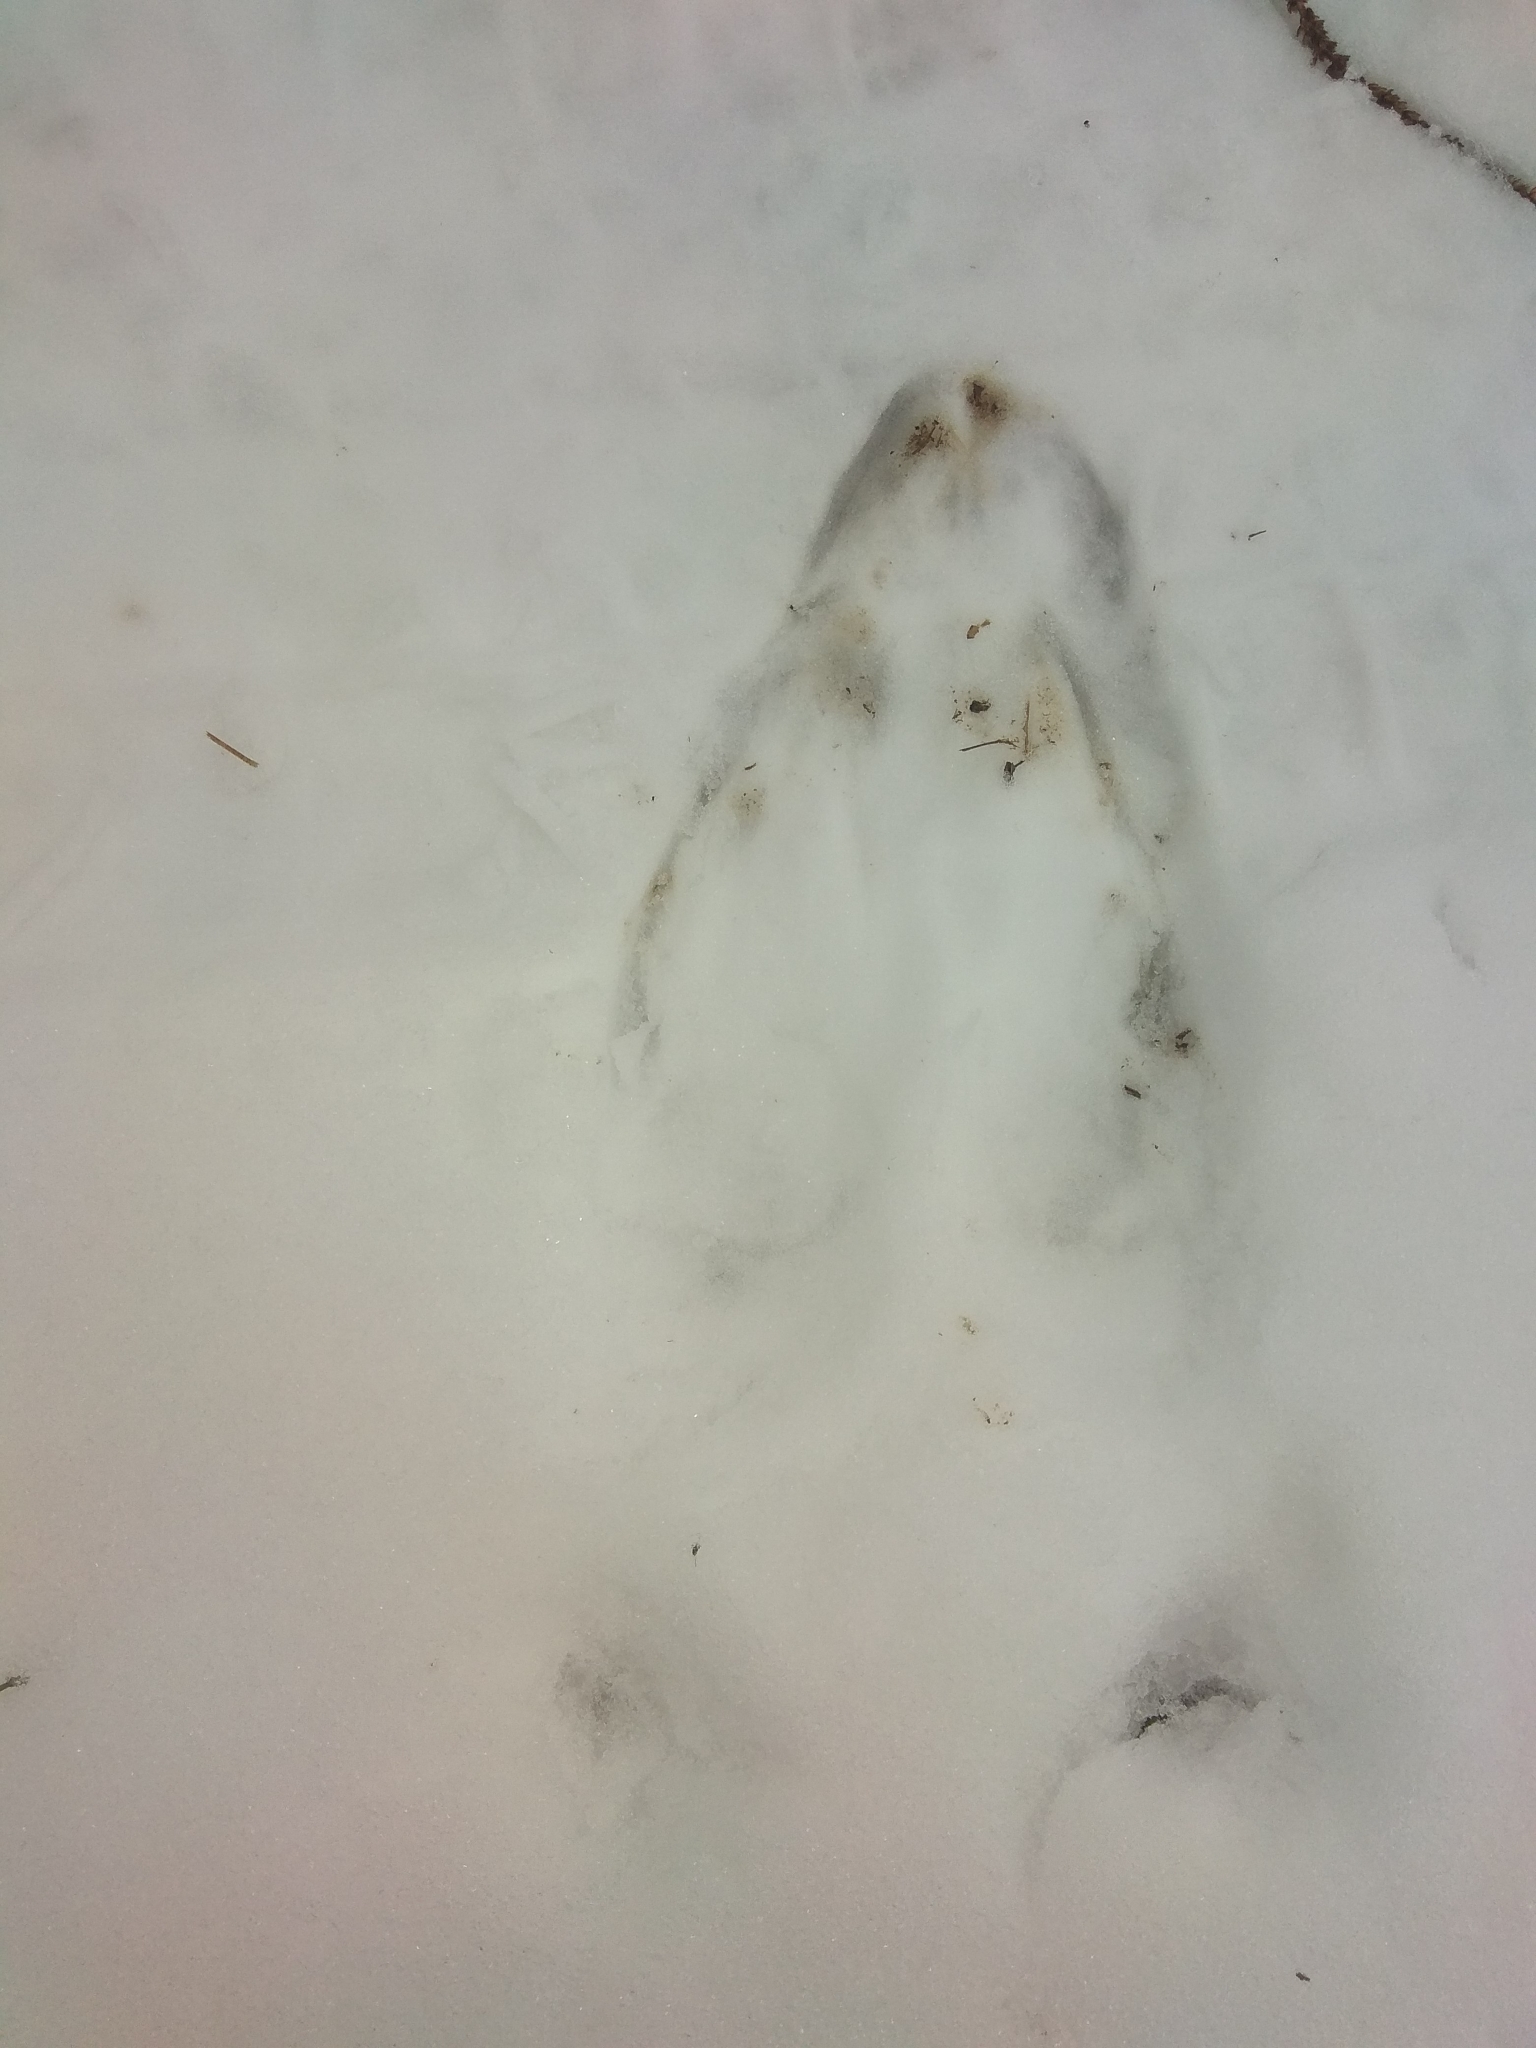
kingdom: Animalia
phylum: Chordata
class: Mammalia
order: Artiodactyla
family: Cervidae
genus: Alces
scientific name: Alces alces
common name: Moose
